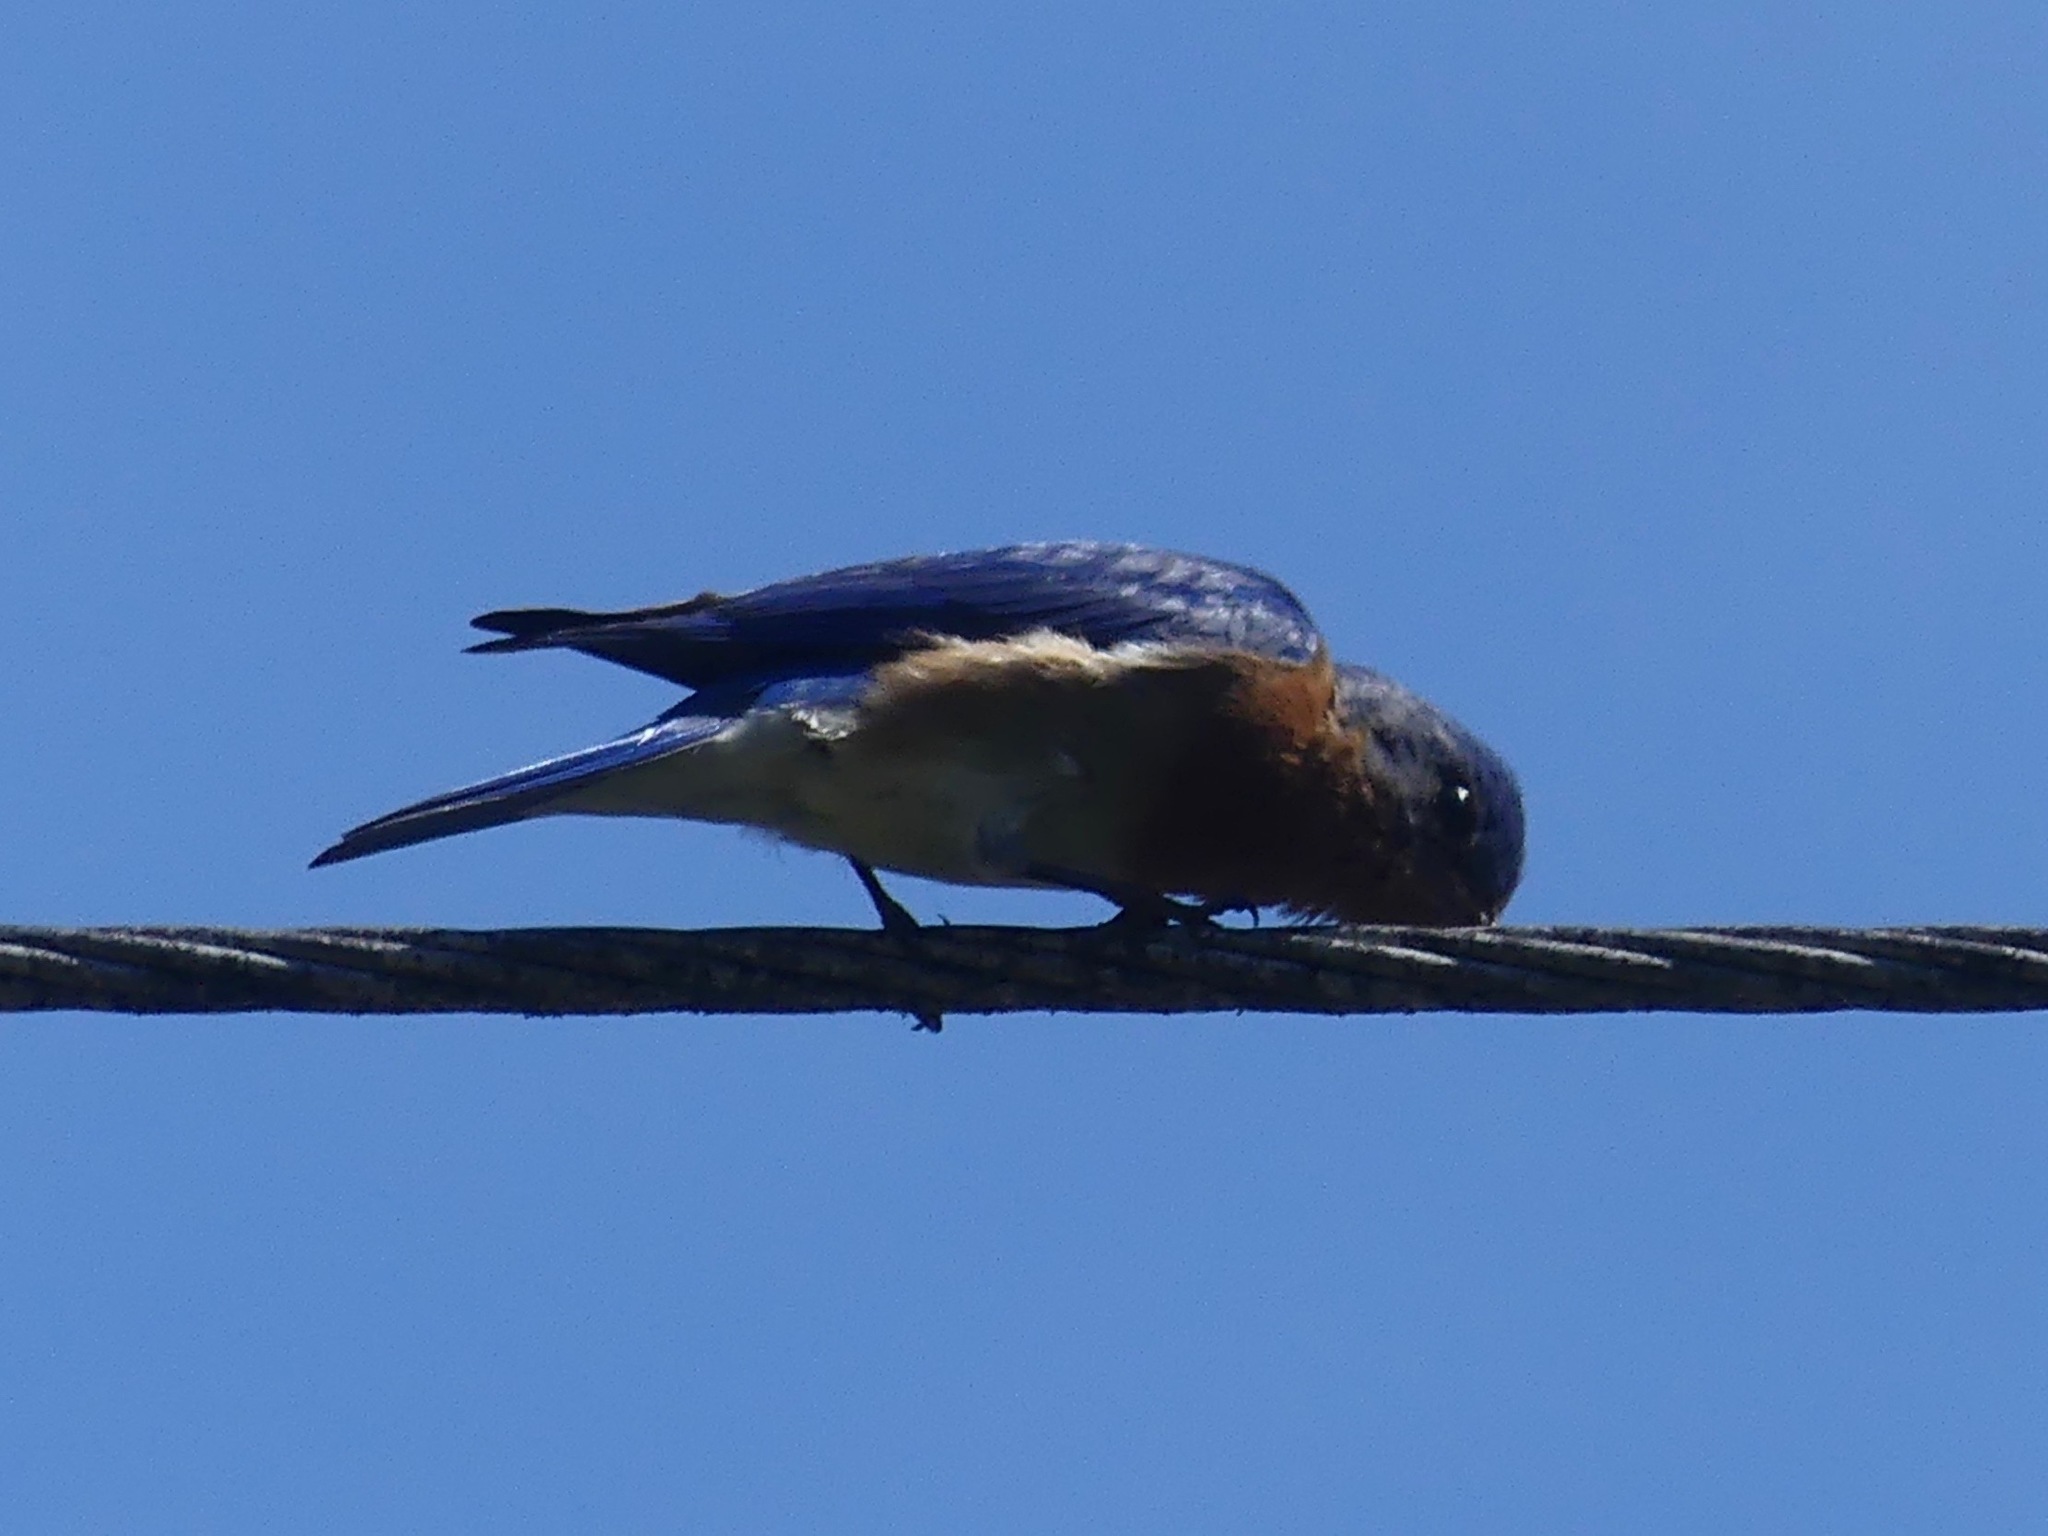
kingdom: Animalia
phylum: Chordata
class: Aves
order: Passeriformes
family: Turdidae
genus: Sialia
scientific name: Sialia sialis
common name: Eastern bluebird
